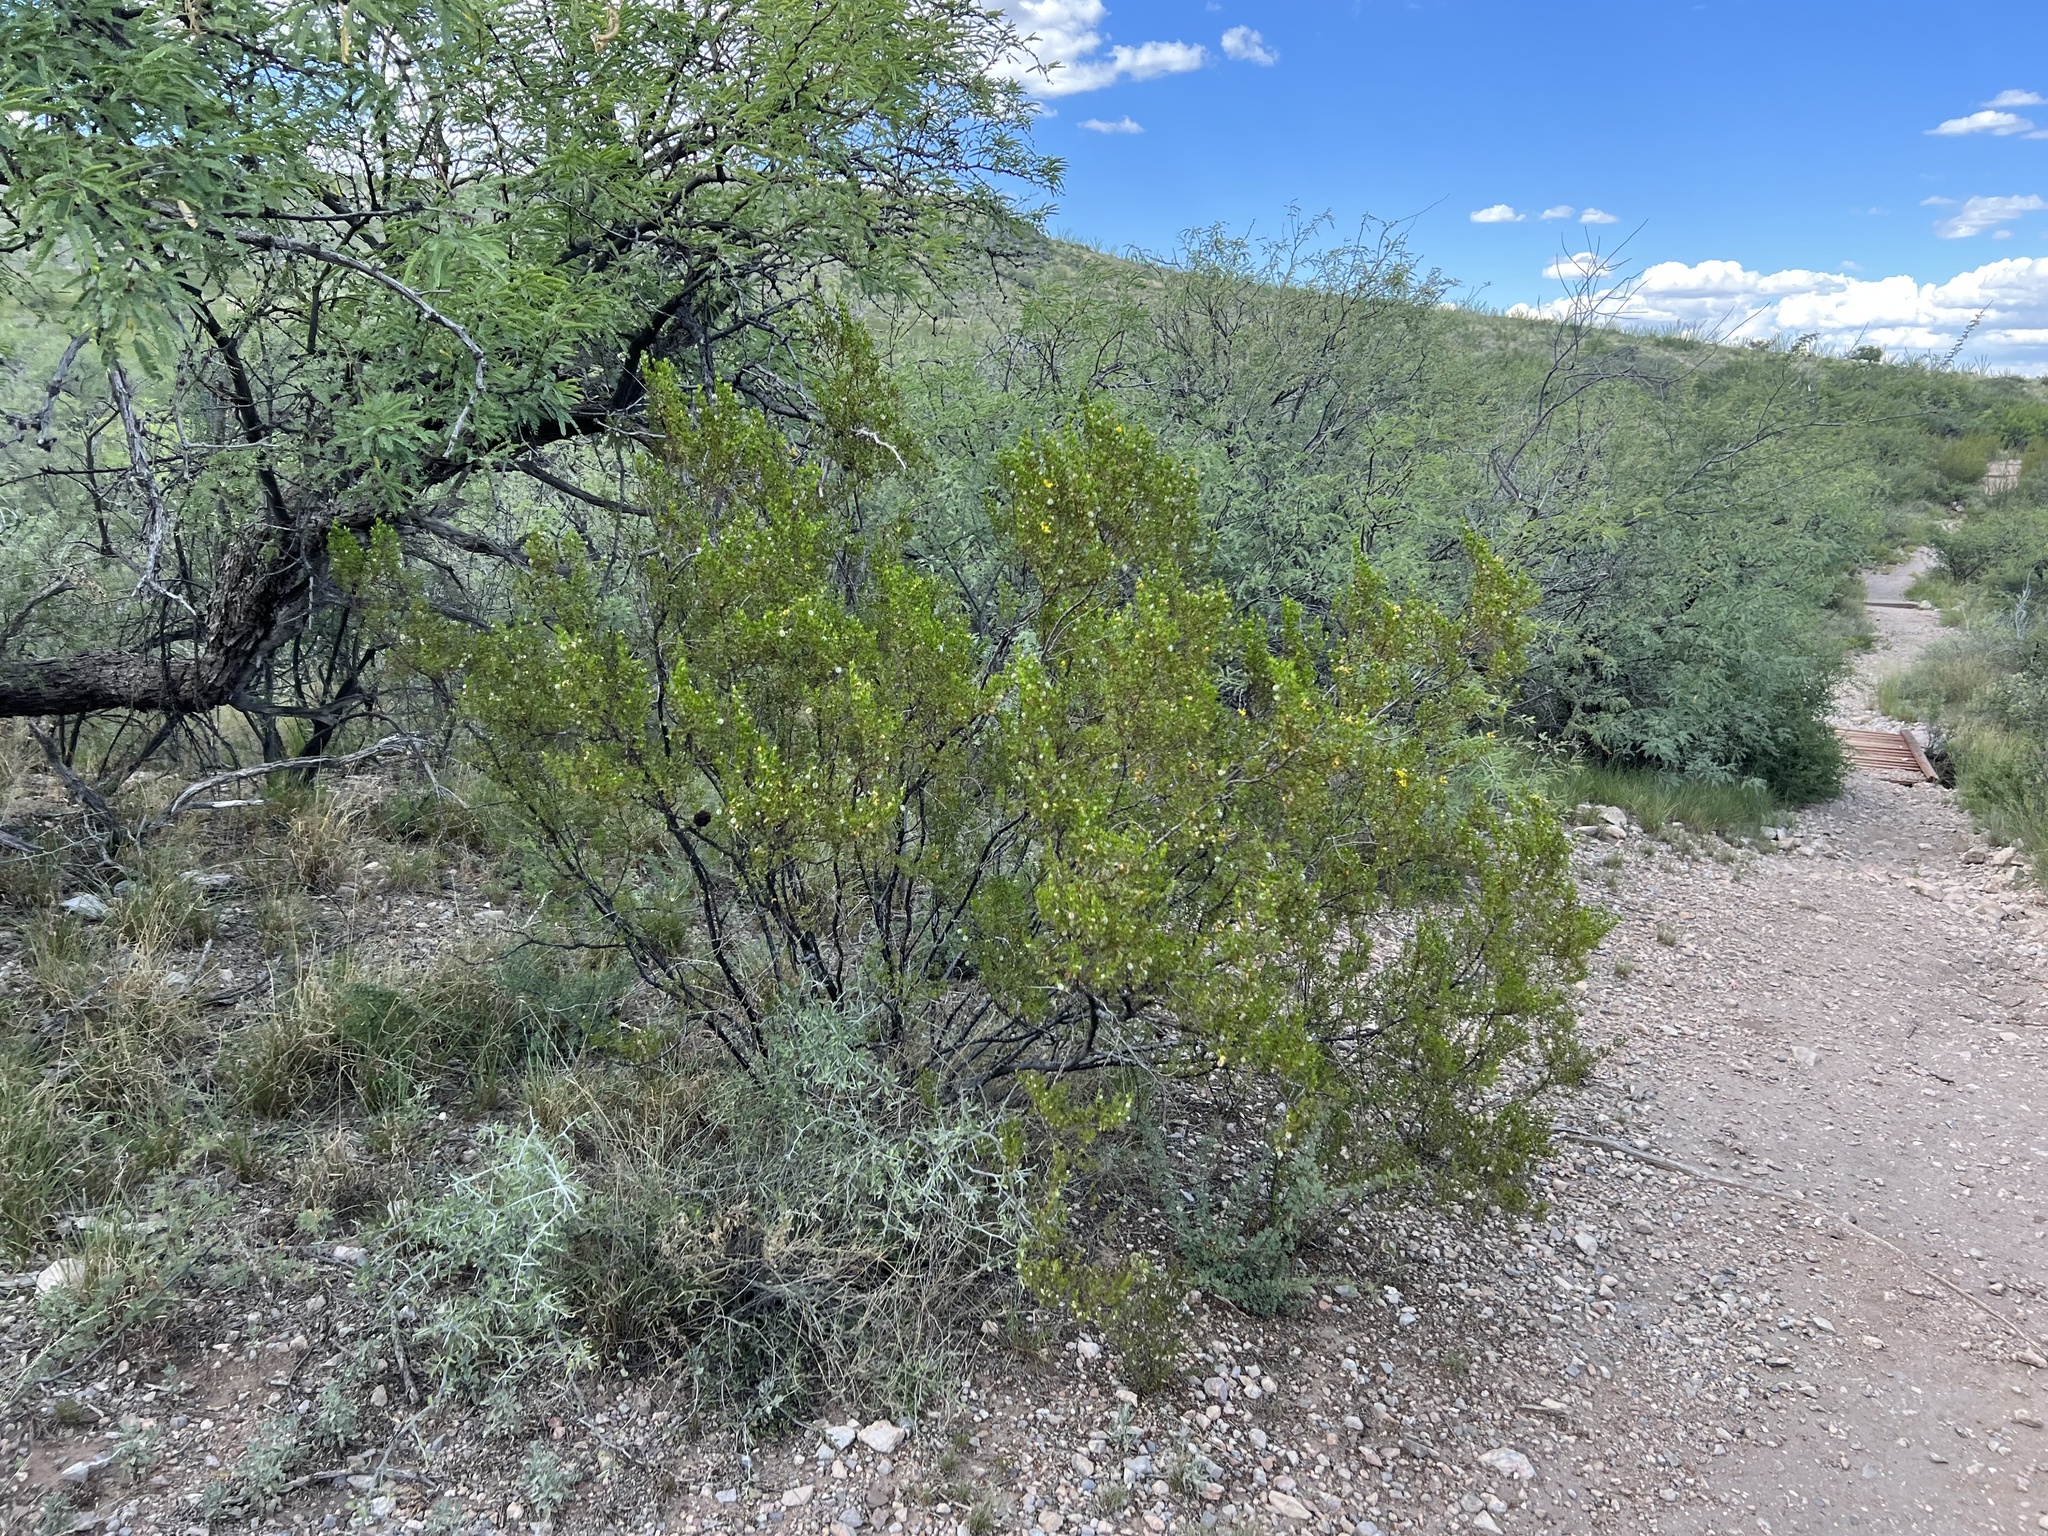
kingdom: Plantae
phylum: Tracheophyta
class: Magnoliopsida
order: Zygophyllales
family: Zygophyllaceae
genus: Larrea
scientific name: Larrea tridentata
